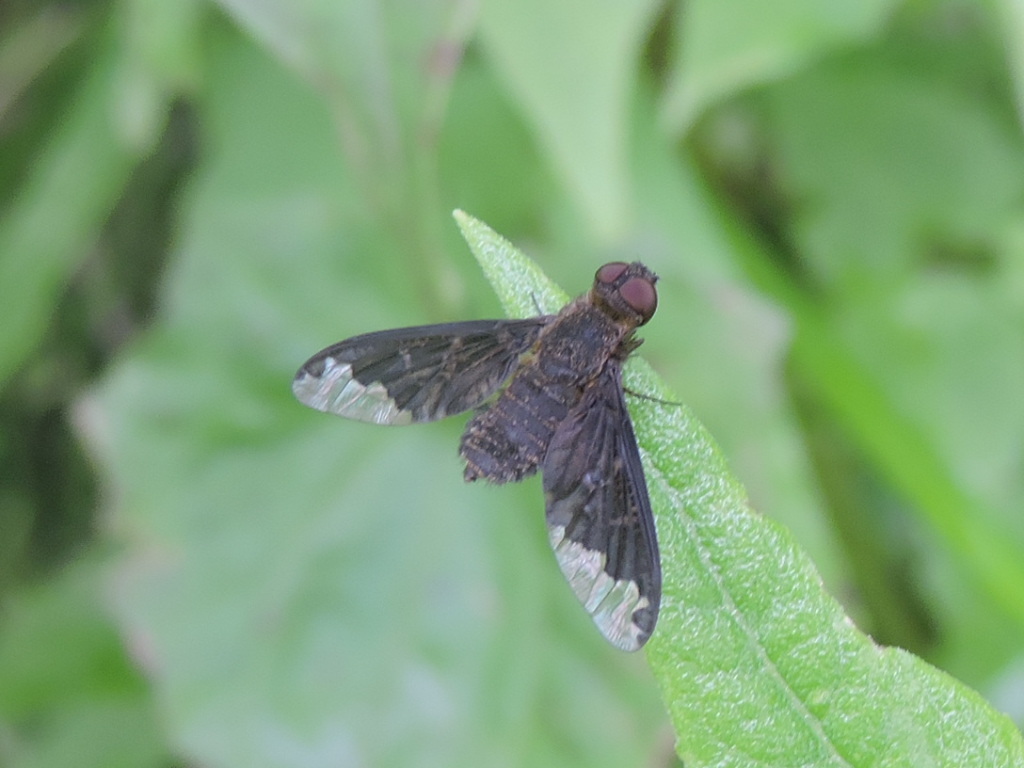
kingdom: Animalia
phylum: Arthropoda
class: Insecta
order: Diptera
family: Bombyliidae
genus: Hemipenthes
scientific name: Hemipenthes sinuosus
